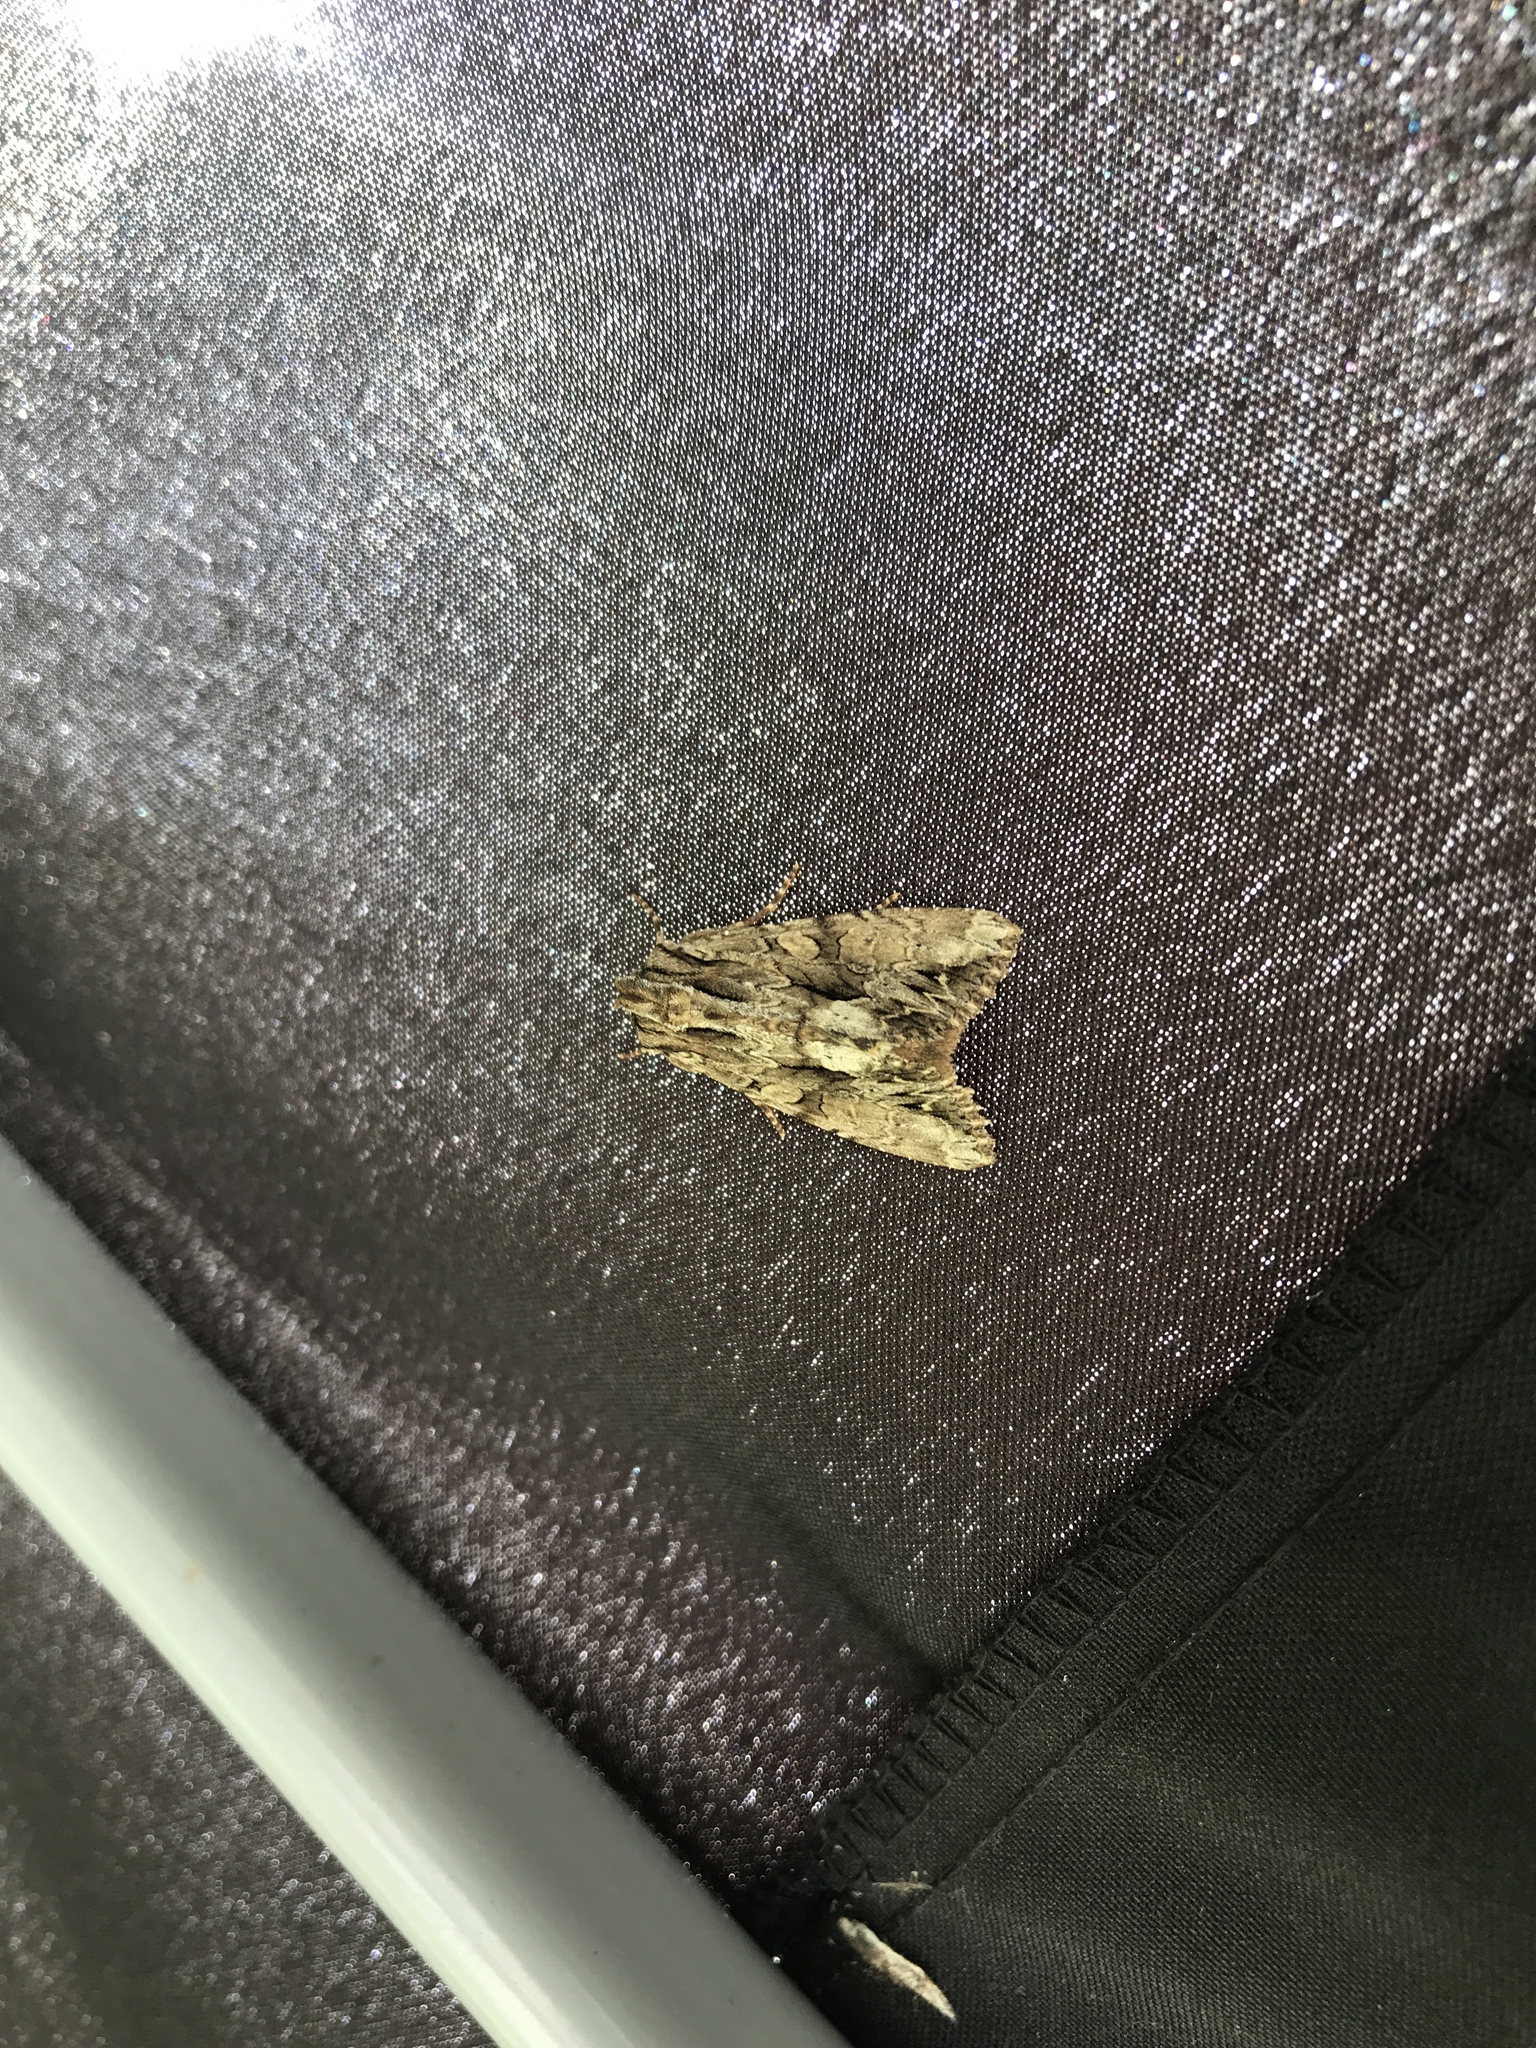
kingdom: Animalia
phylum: Arthropoda
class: Insecta
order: Lepidoptera
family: Noctuidae
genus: Apamea
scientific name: Apamea monoglypha
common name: Dark arches
